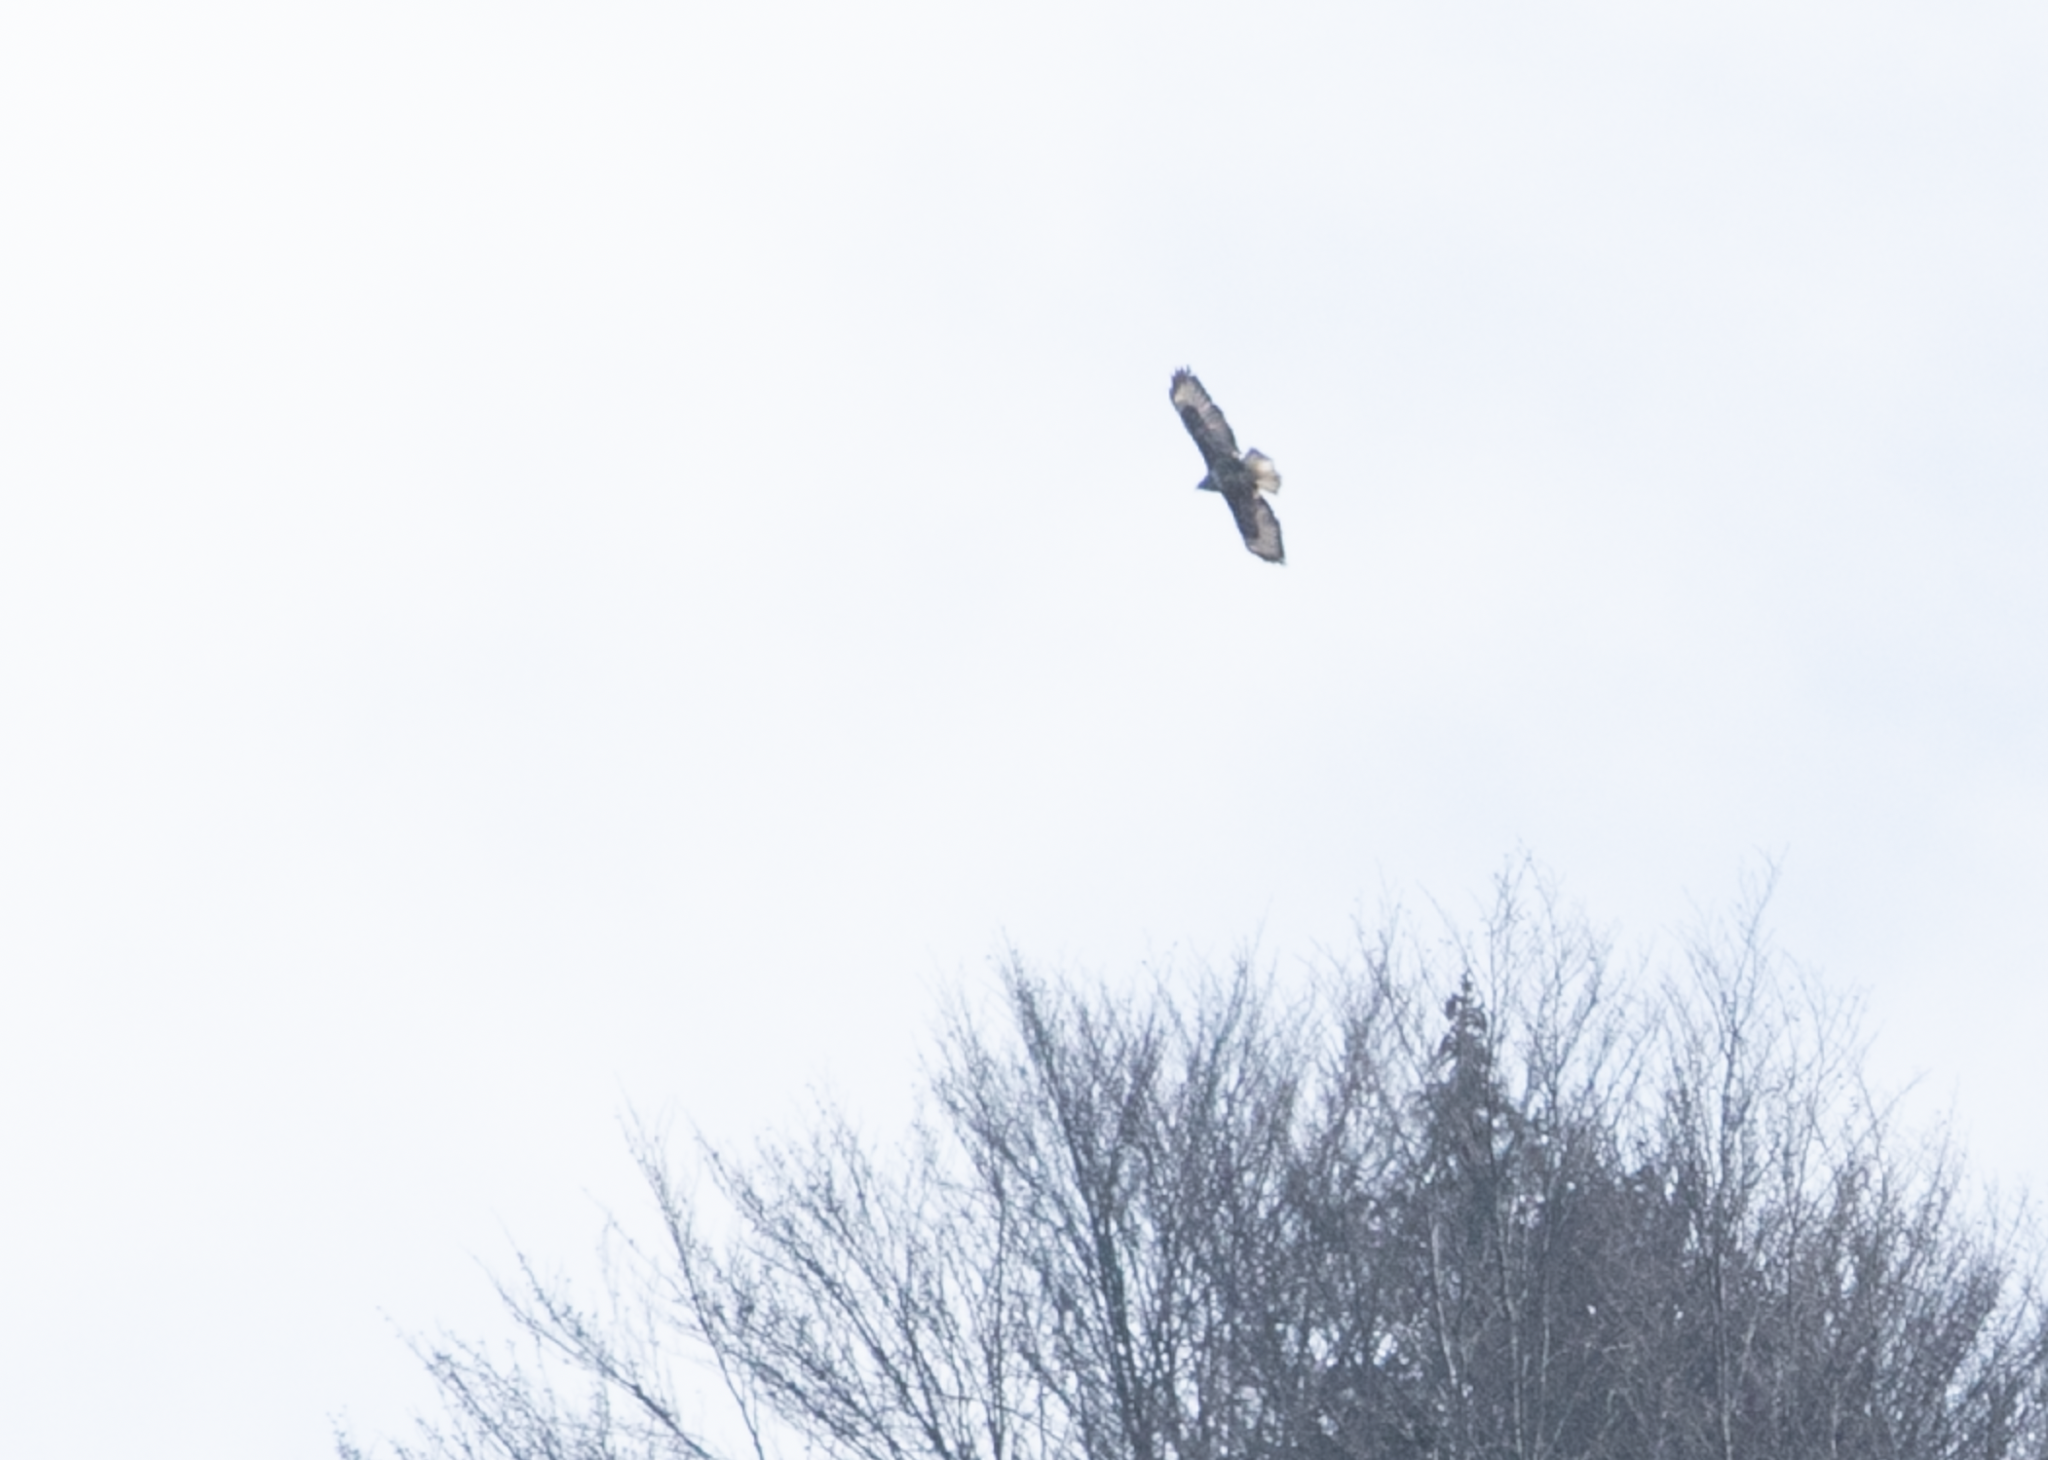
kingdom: Animalia
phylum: Chordata
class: Aves
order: Accipitriformes
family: Accipitridae
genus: Buteo
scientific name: Buteo buteo
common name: Common buzzard
